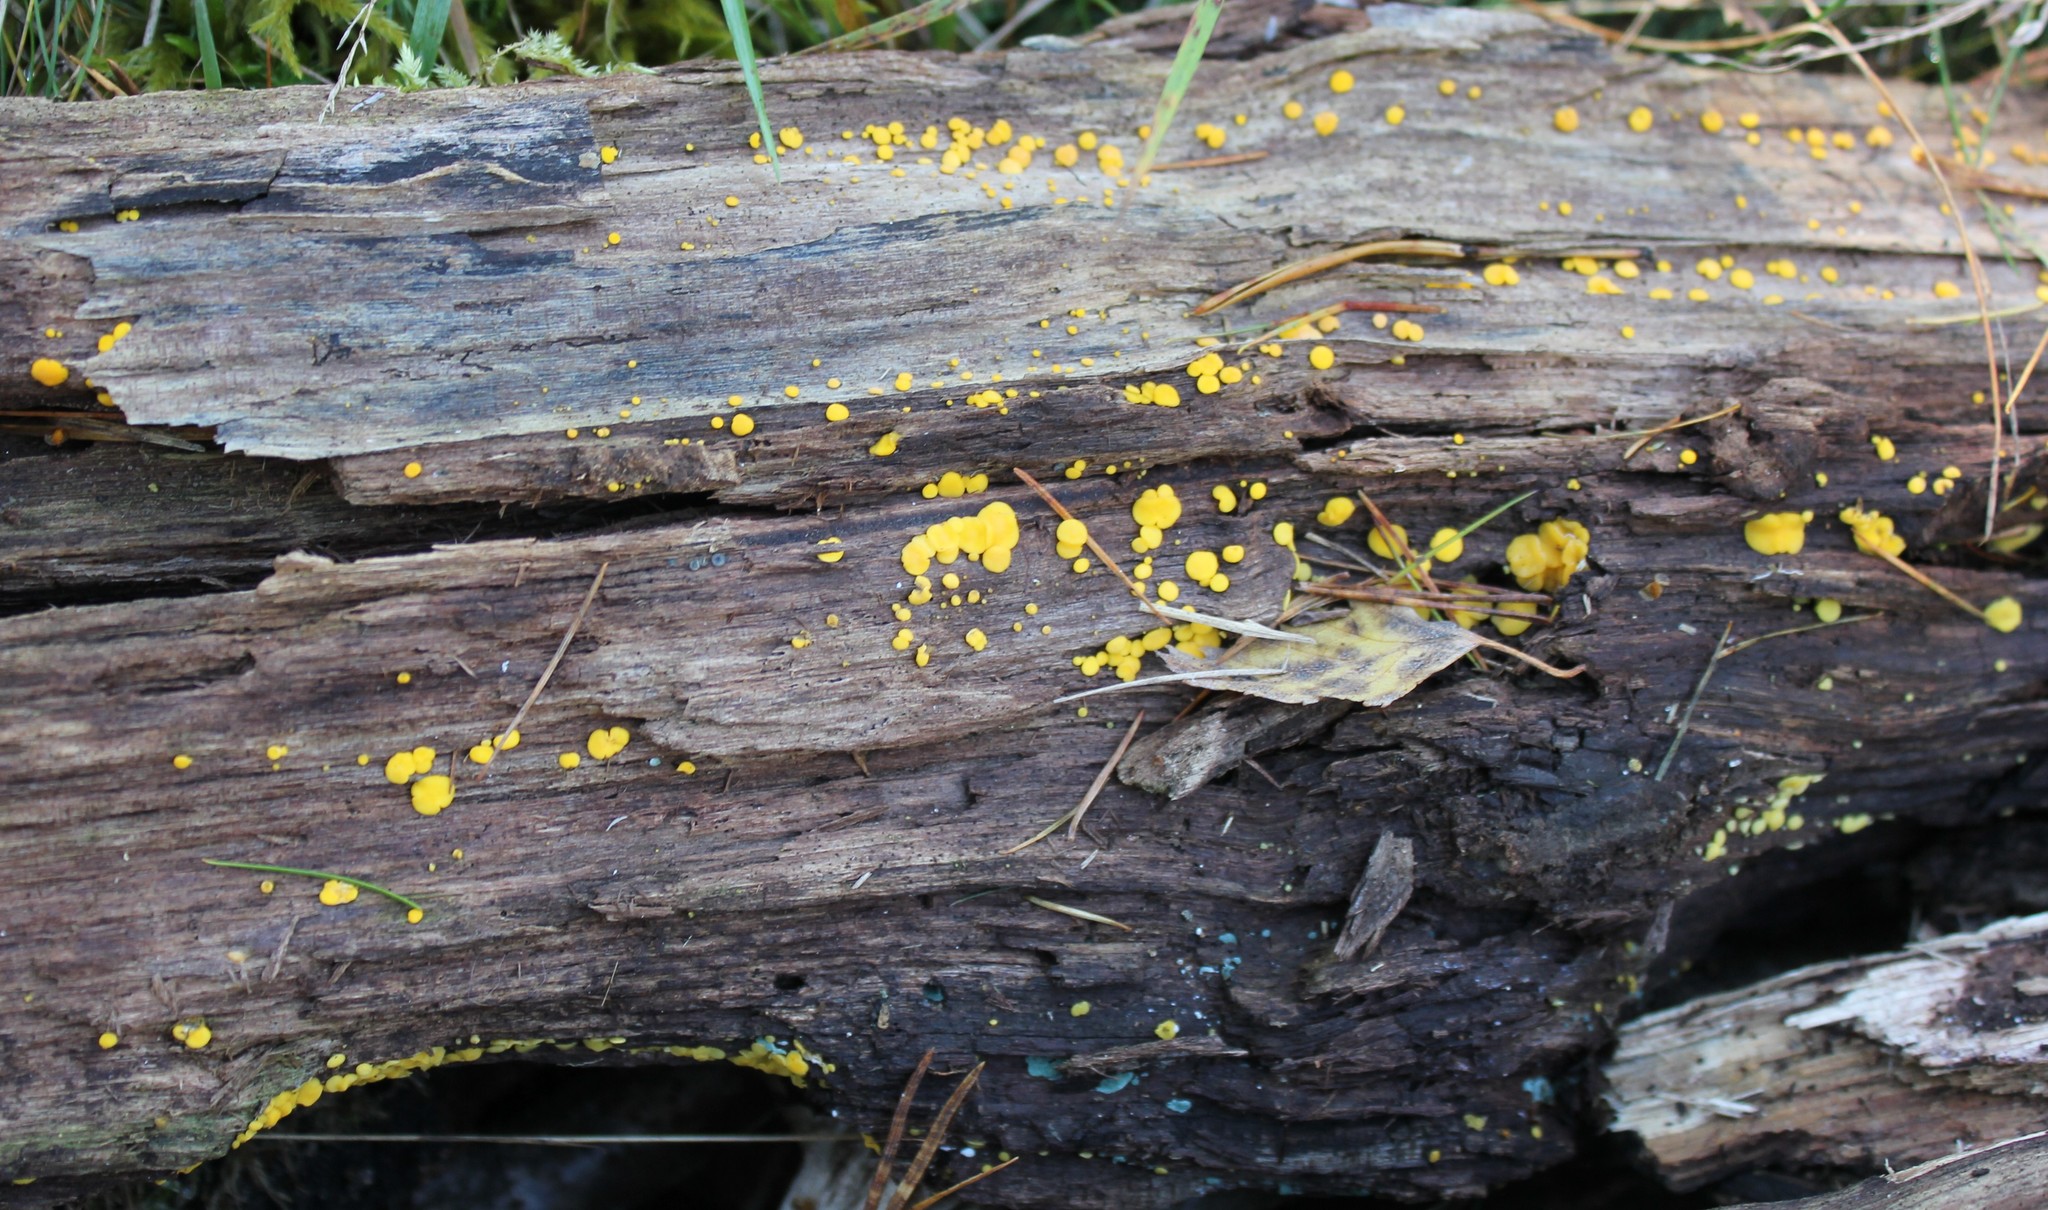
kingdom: Fungi
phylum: Ascomycota
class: Leotiomycetes
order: Helotiales
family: Pezizellaceae
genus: Calycina
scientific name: Calycina citrina
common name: Yellow fairy cups
